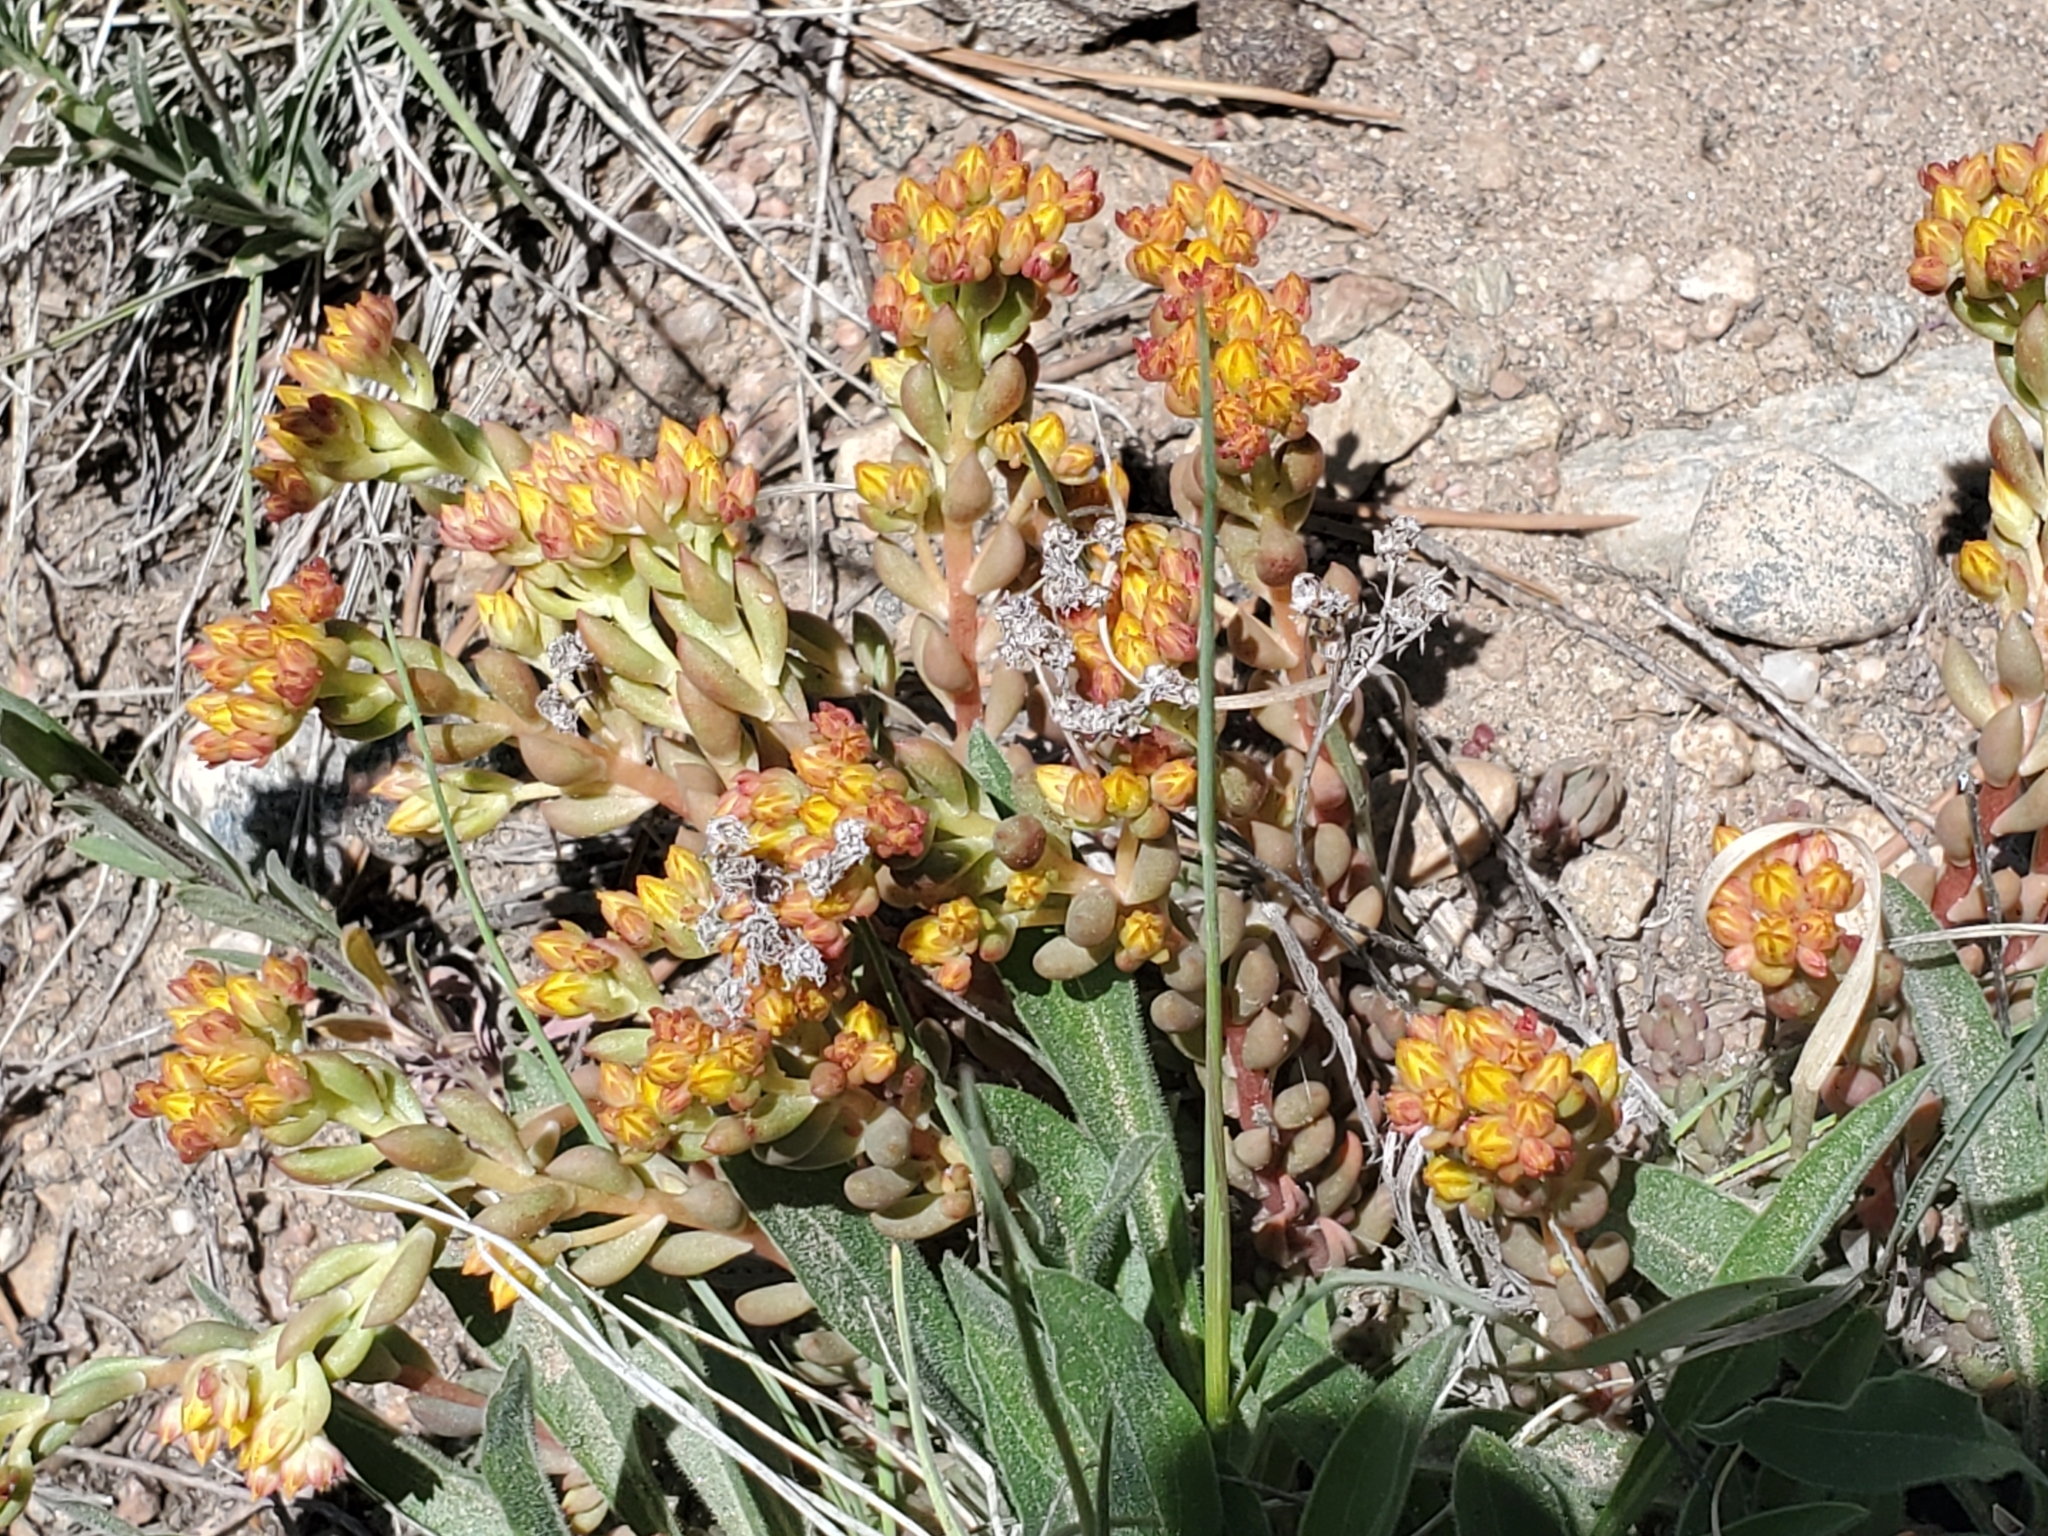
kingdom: Plantae
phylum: Tracheophyta
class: Magnoliopsida
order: Saxifragales
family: Crassulaceae
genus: Sedum
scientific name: Sedum lanceolatum
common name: Common stonecrop
